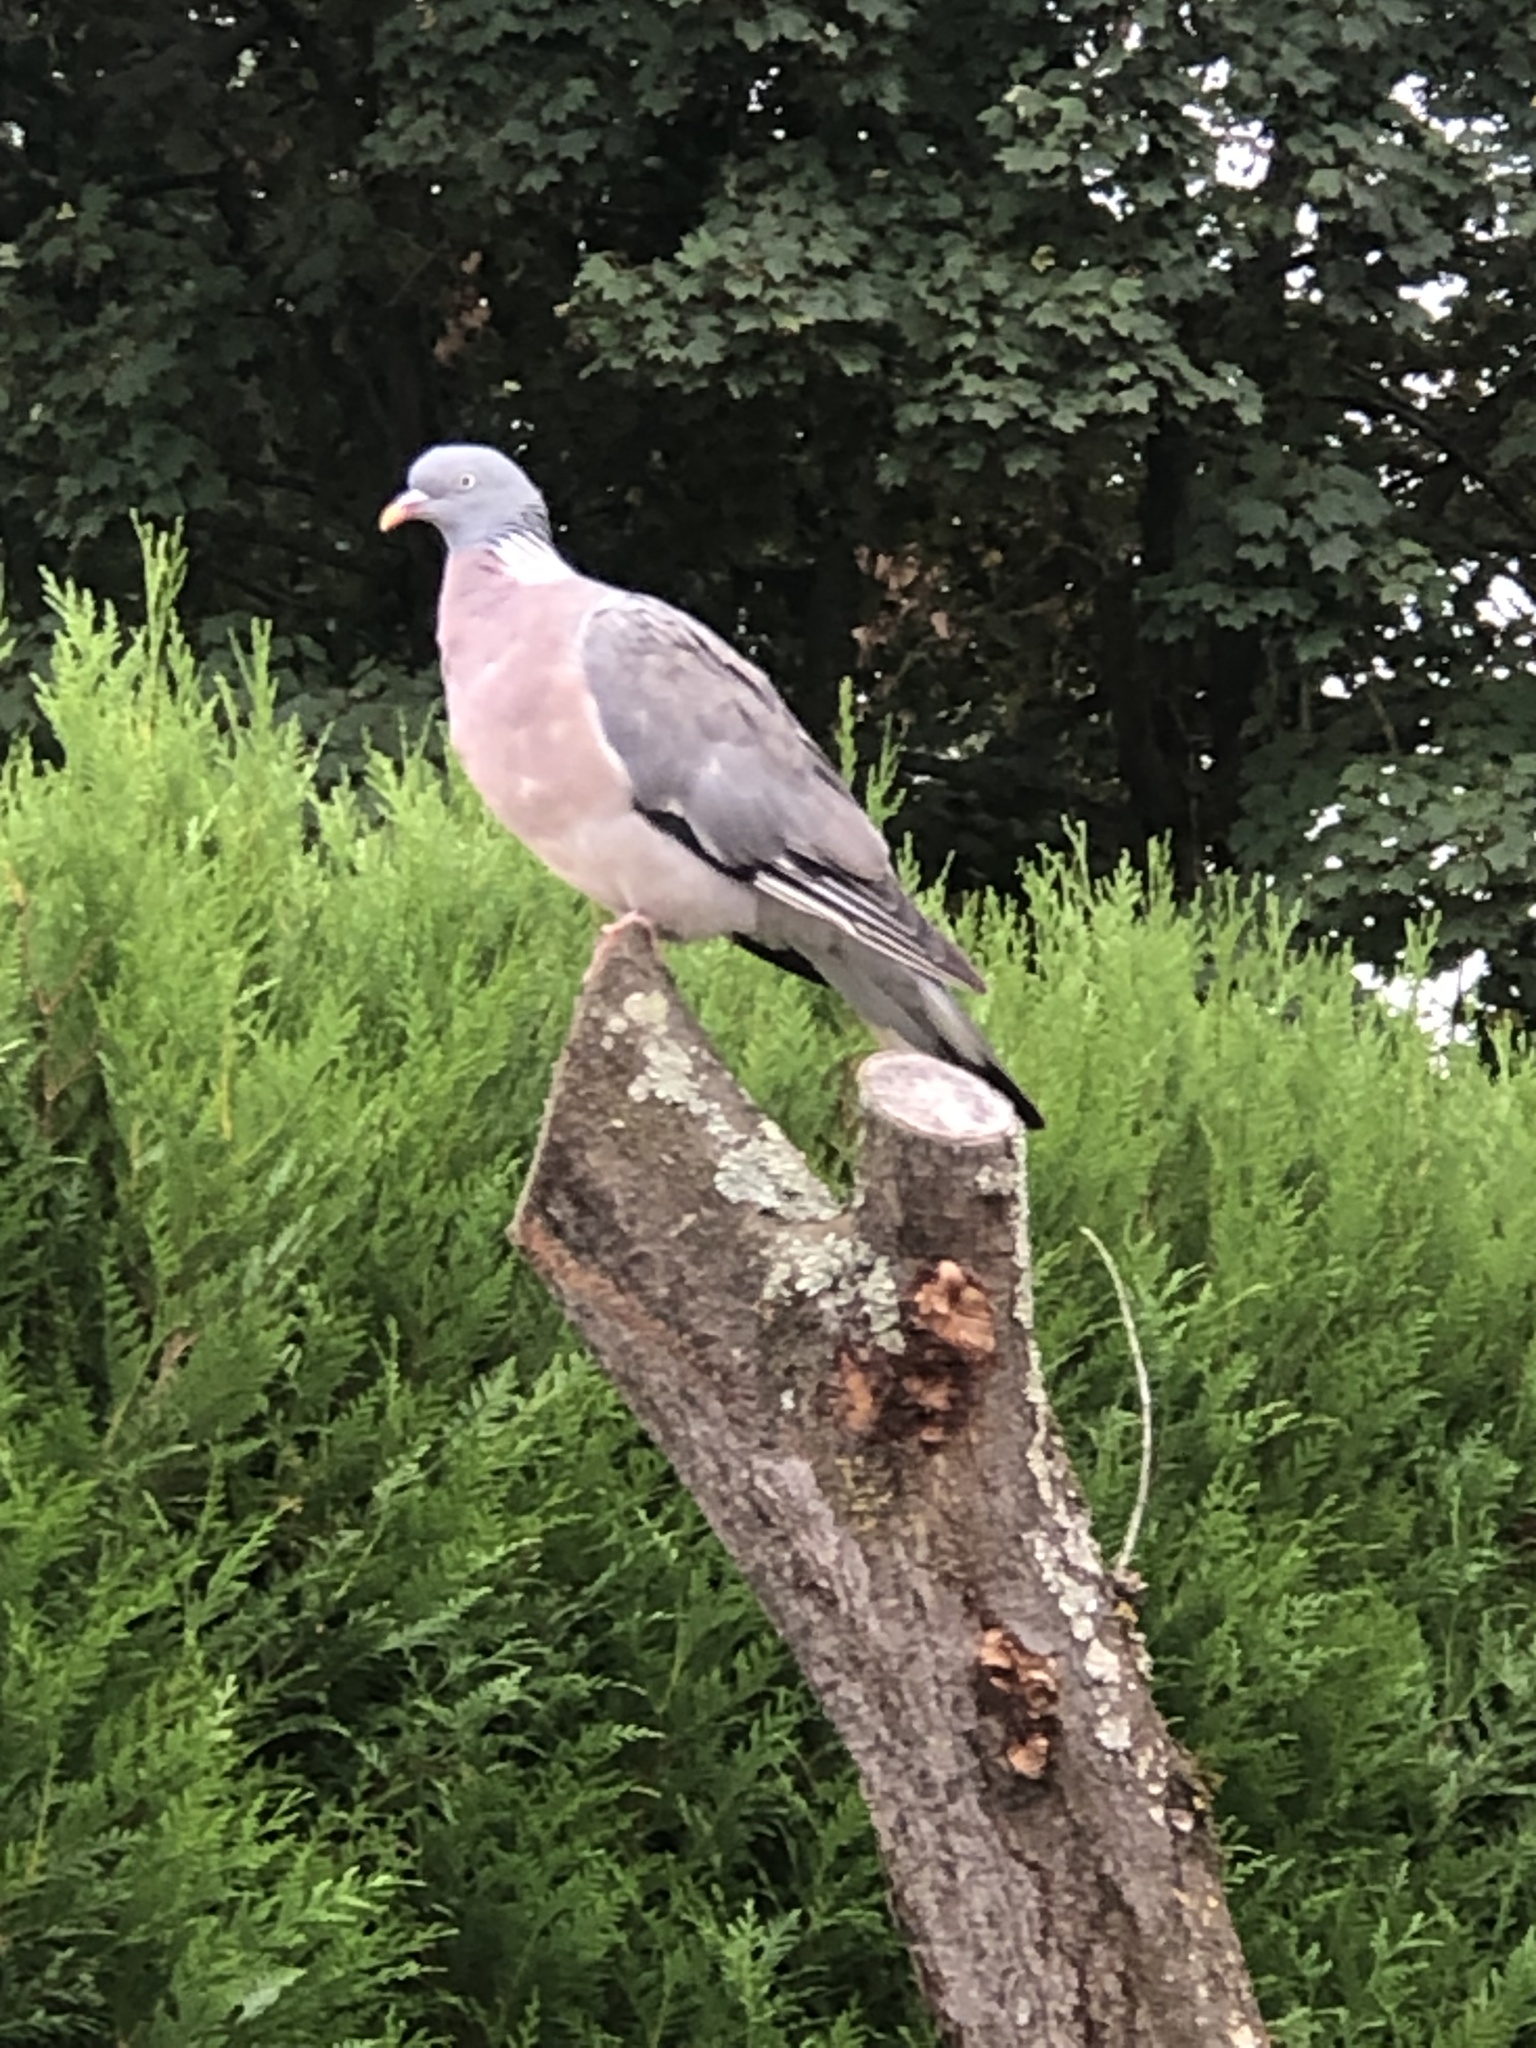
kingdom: Animalia
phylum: Chordata
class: Aves
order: Columbiformes
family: Columbidae
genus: Columba
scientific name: Columba palumbus
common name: Common wood pigeon
